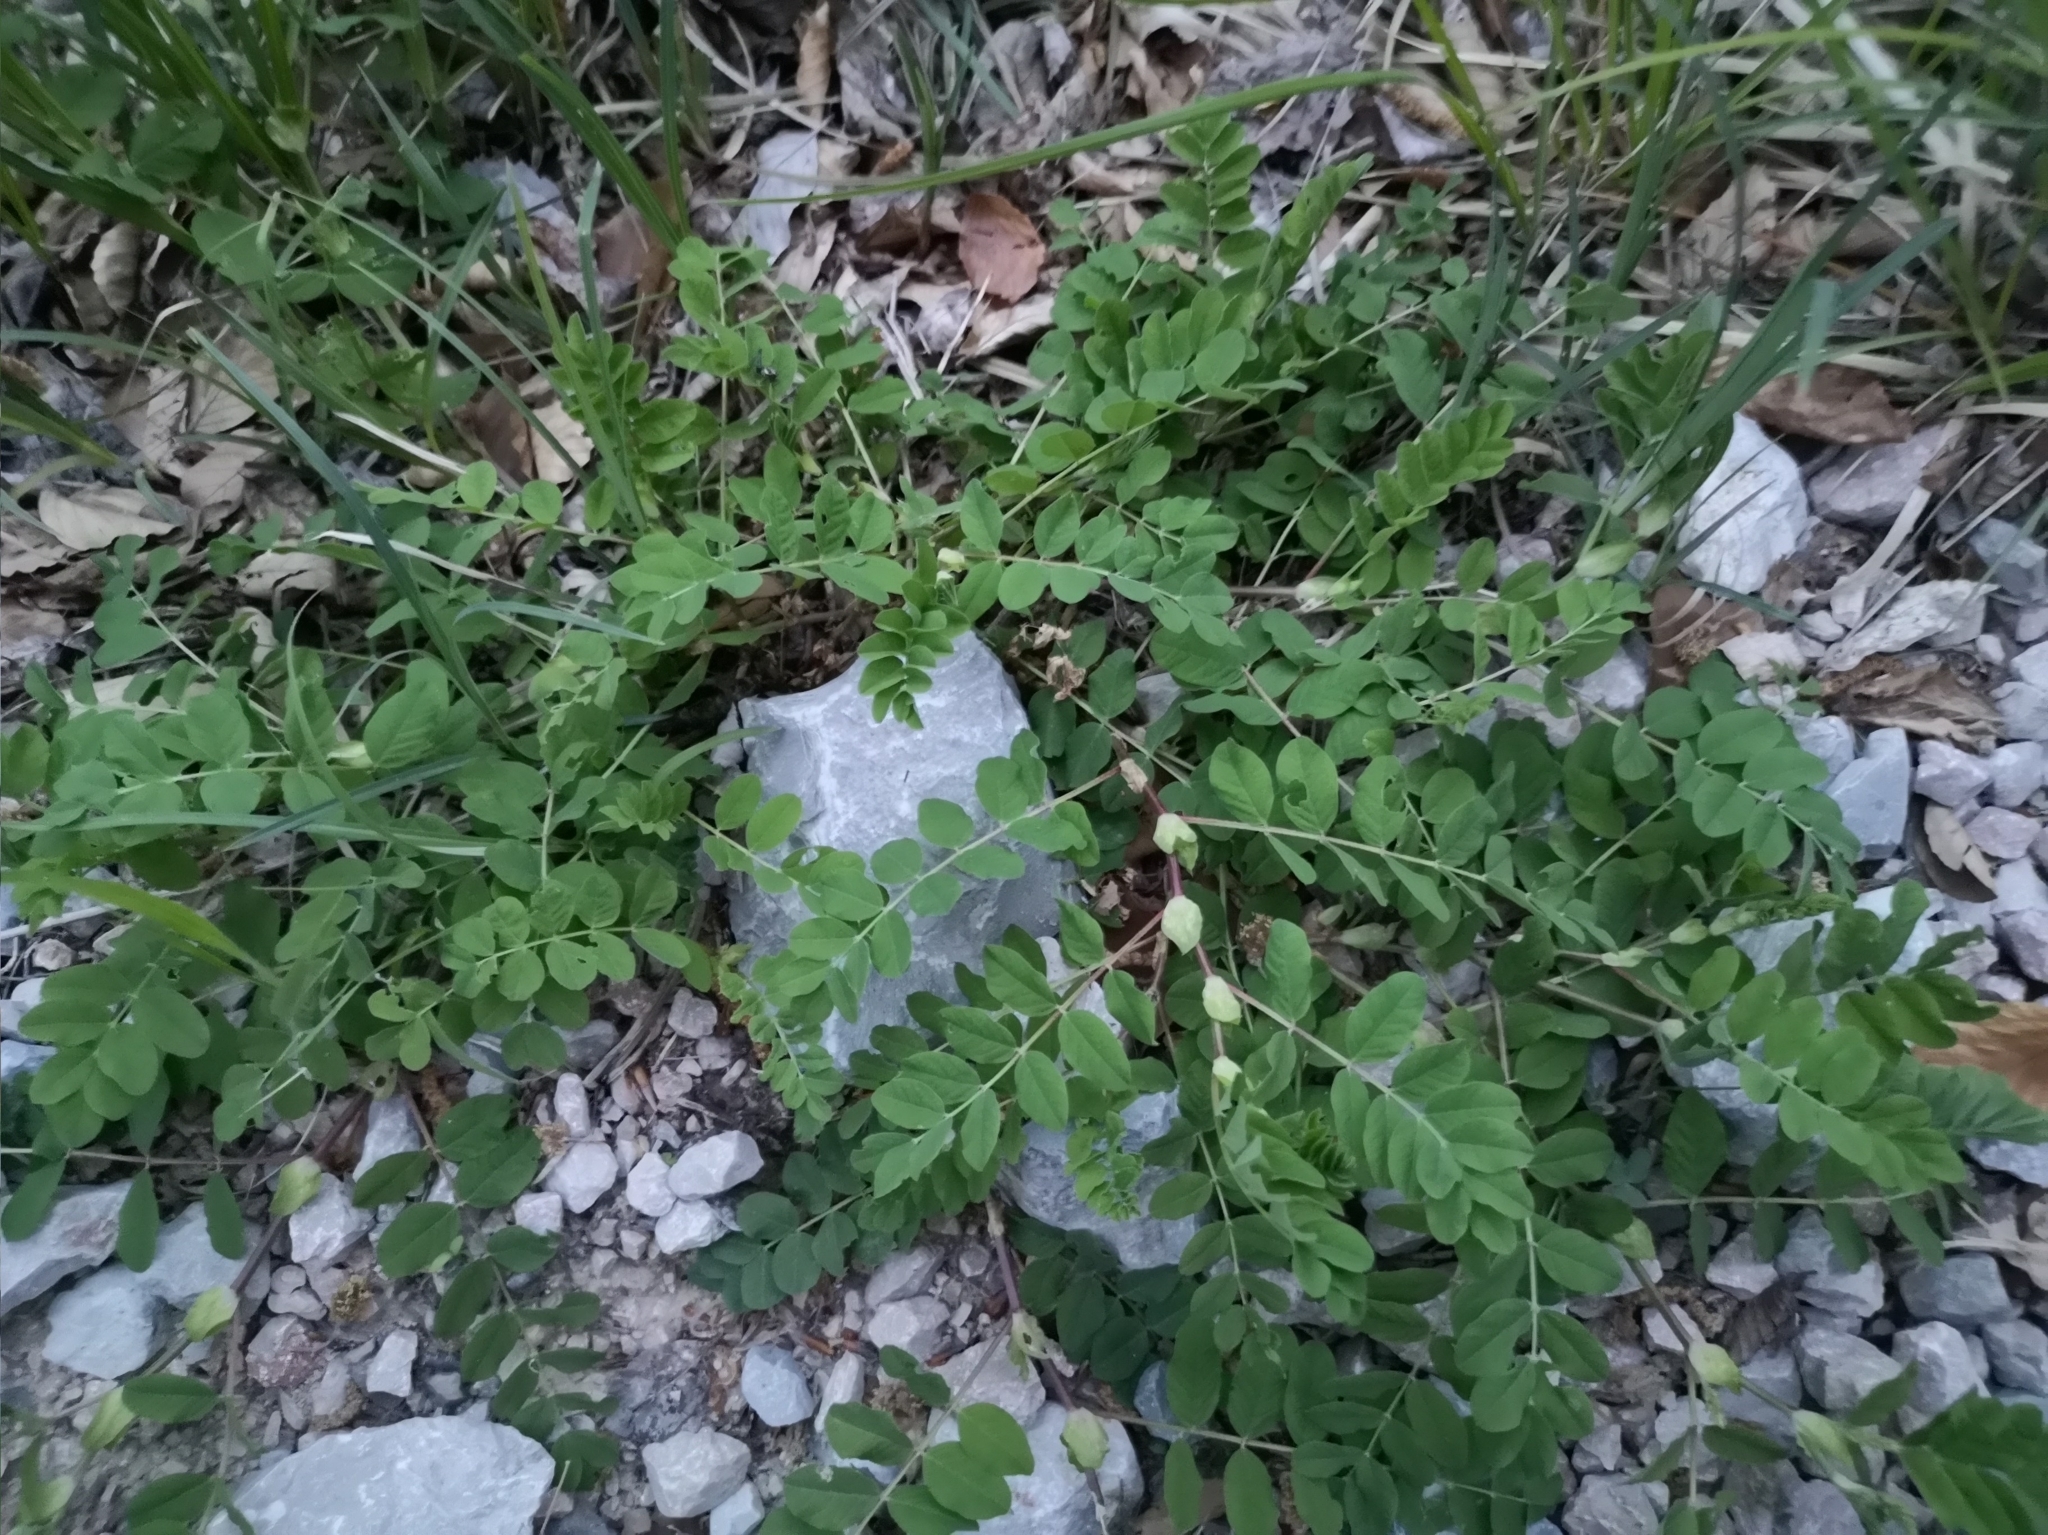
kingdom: Plantae
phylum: Tracheophyta
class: Magnoliopsida
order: Fabales
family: Fabaceae
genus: Astragalus
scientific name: Astragalus glycyphyllos
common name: Wild liquorice
